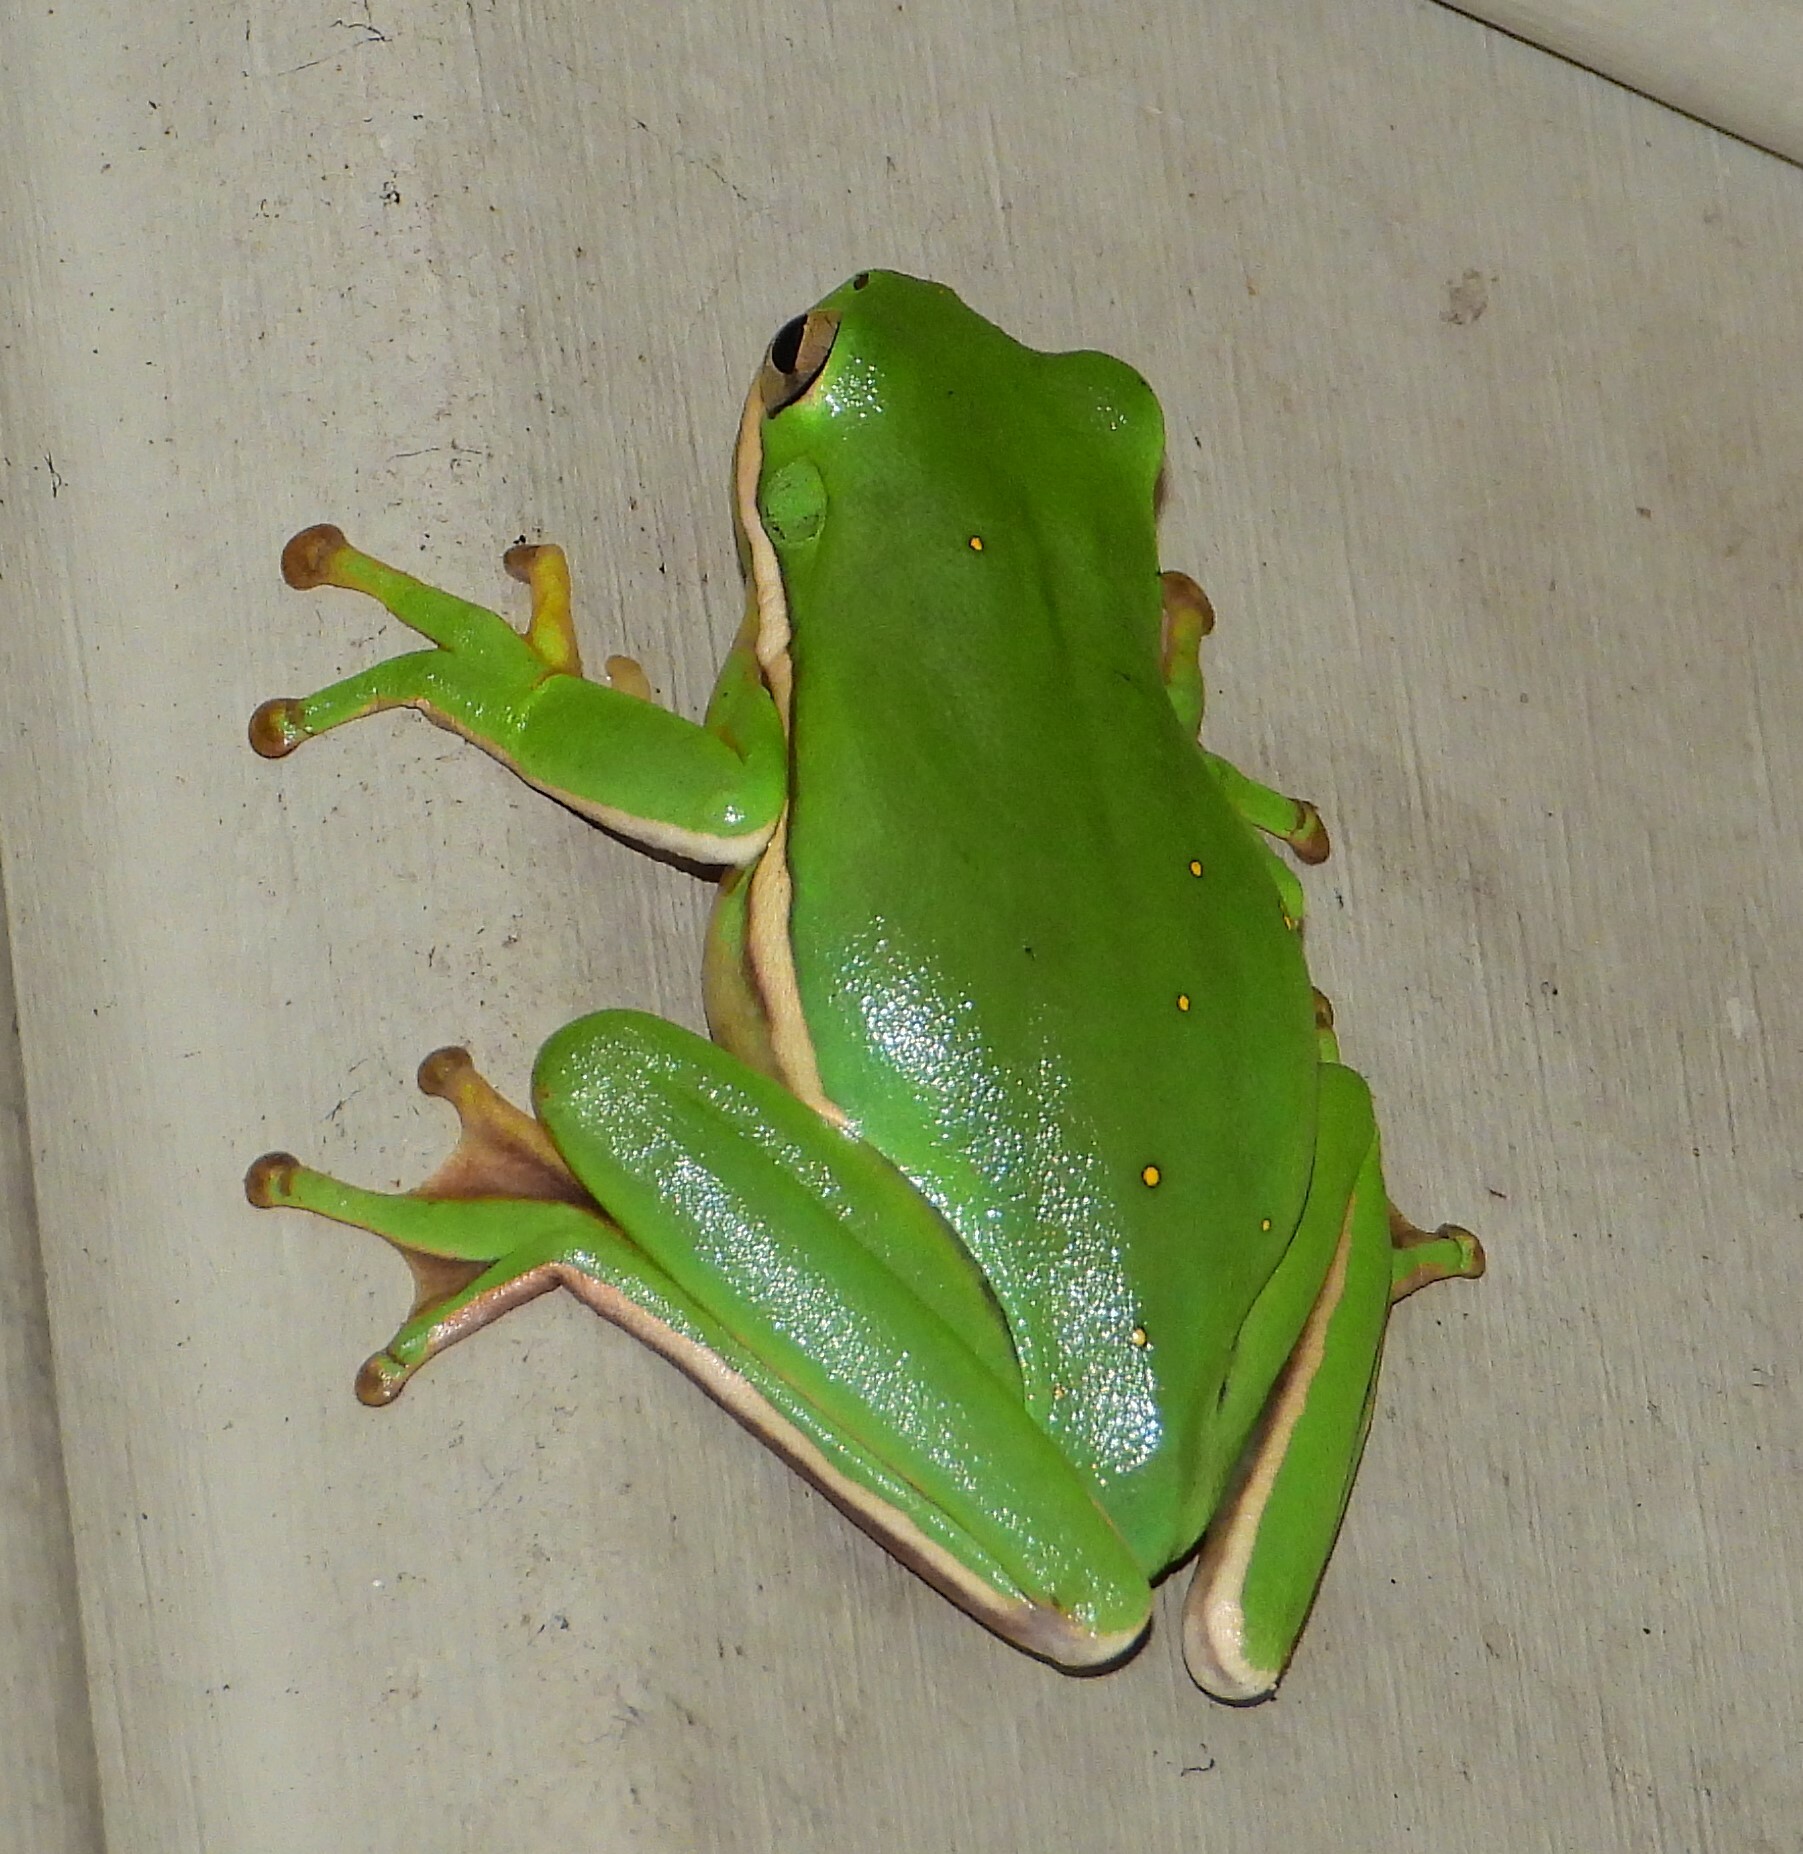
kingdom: Animalia
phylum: Chordata
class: Amphibia
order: Anura
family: Hylidae
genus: Dryophytes
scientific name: Dryophytes cinereus
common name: Green treefrog
